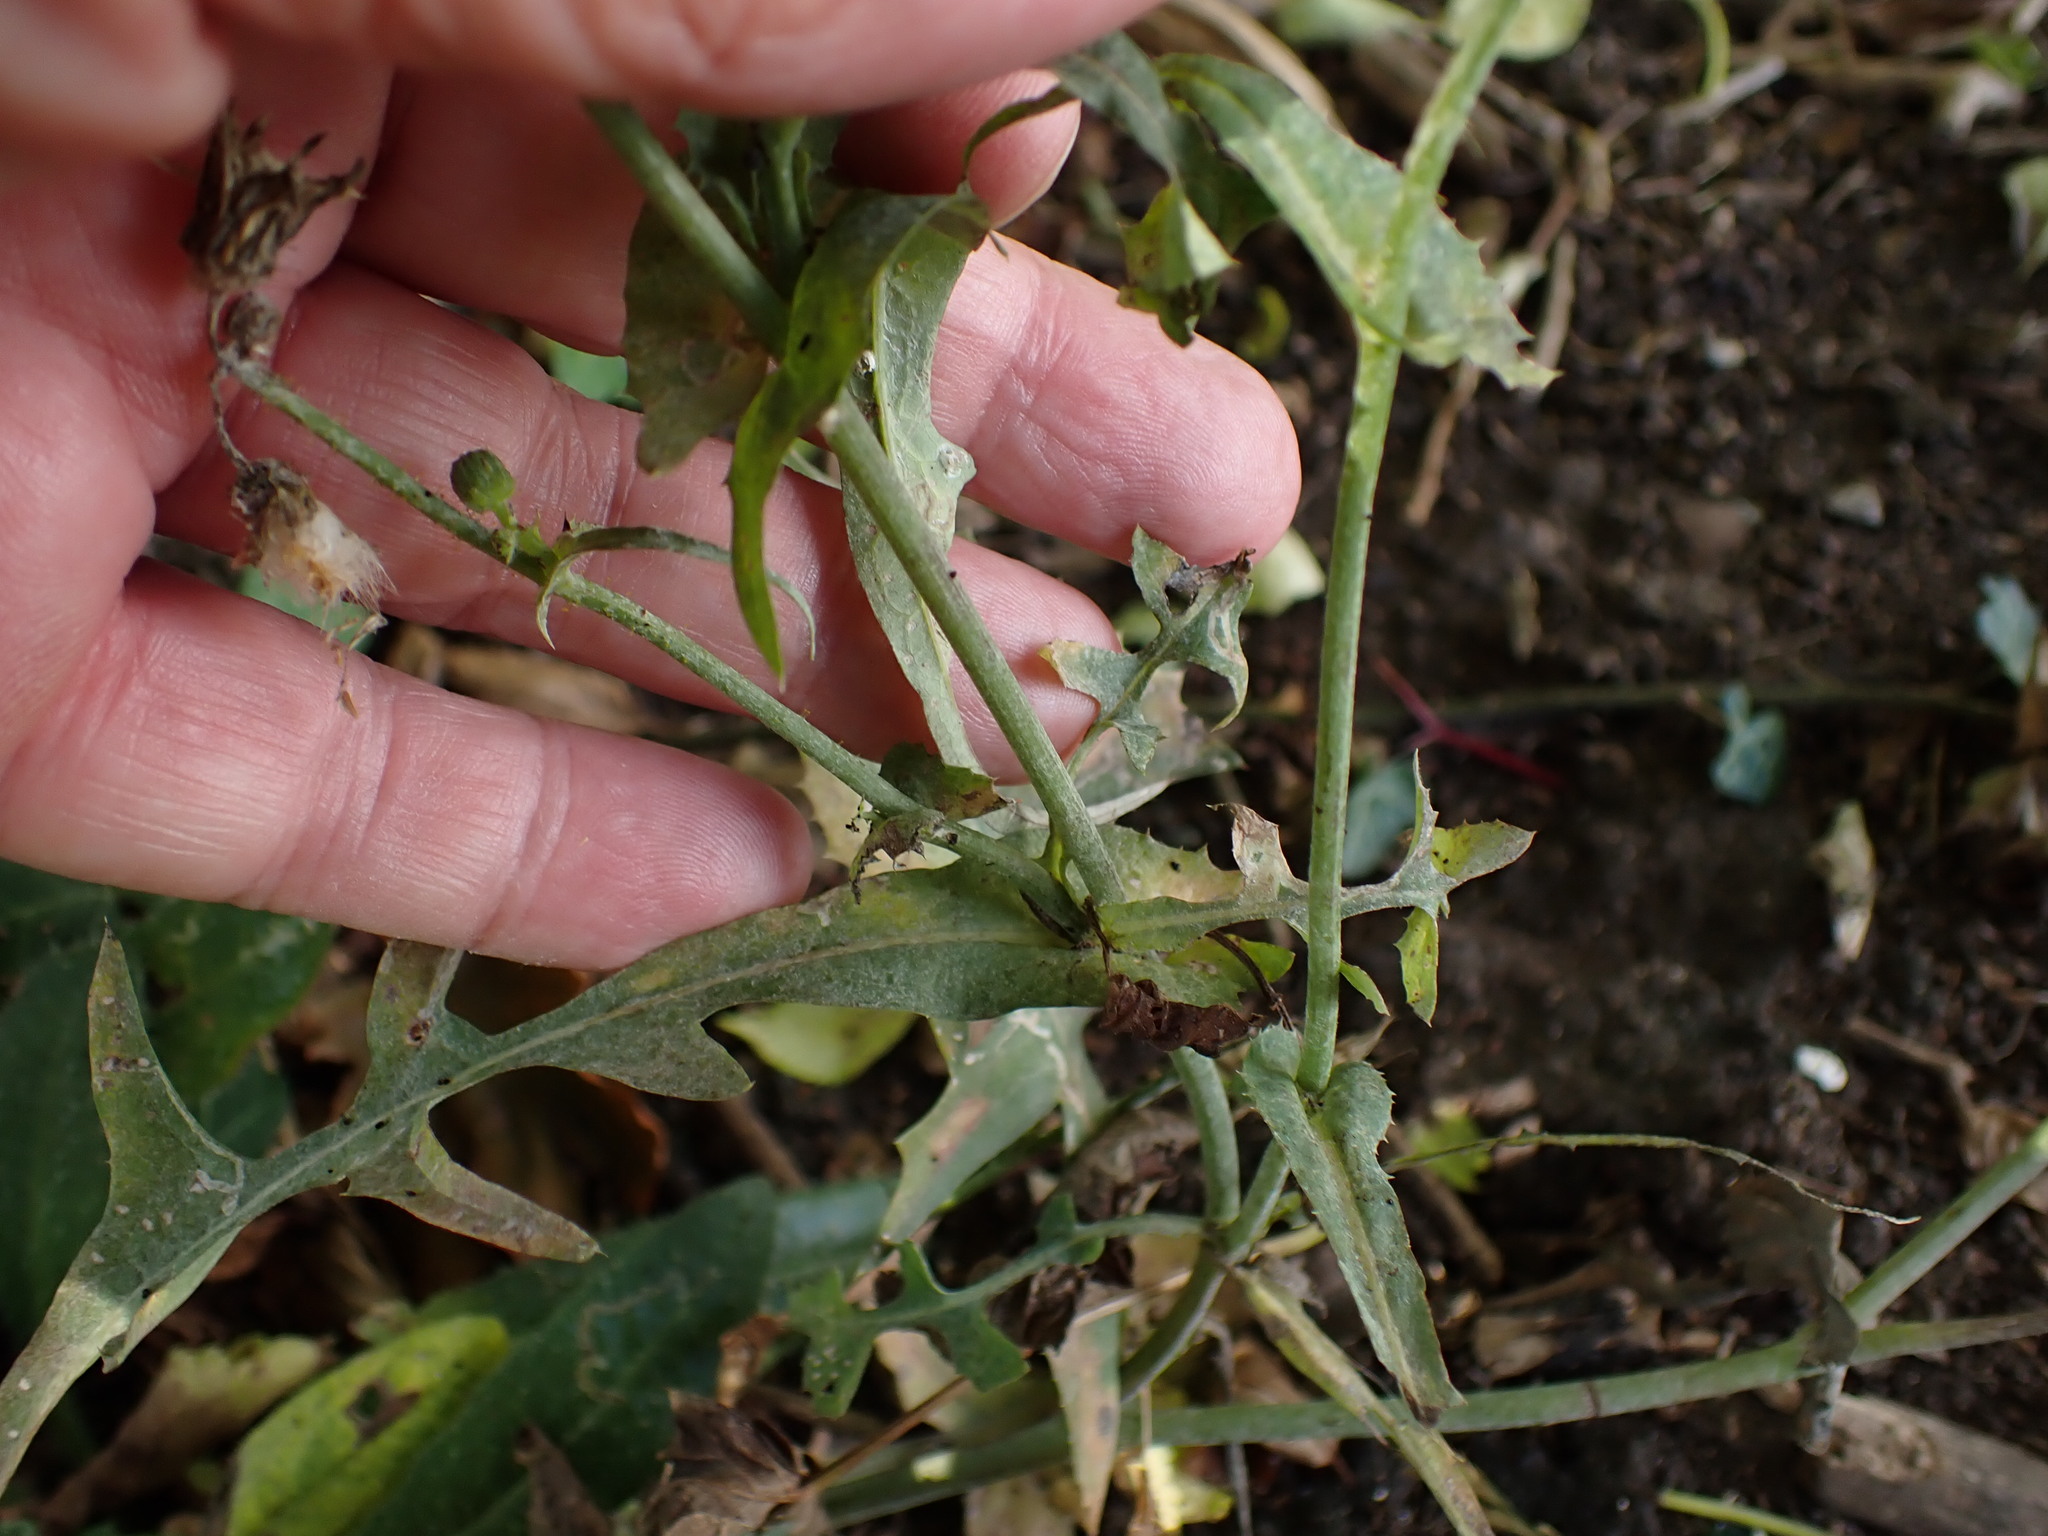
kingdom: Plantae
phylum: Tracheophyta
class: Magnoliopsida
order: Asterales
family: Asteraceae
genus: Sonchus
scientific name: Sonchus oleraceus
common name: Common sowthistle
